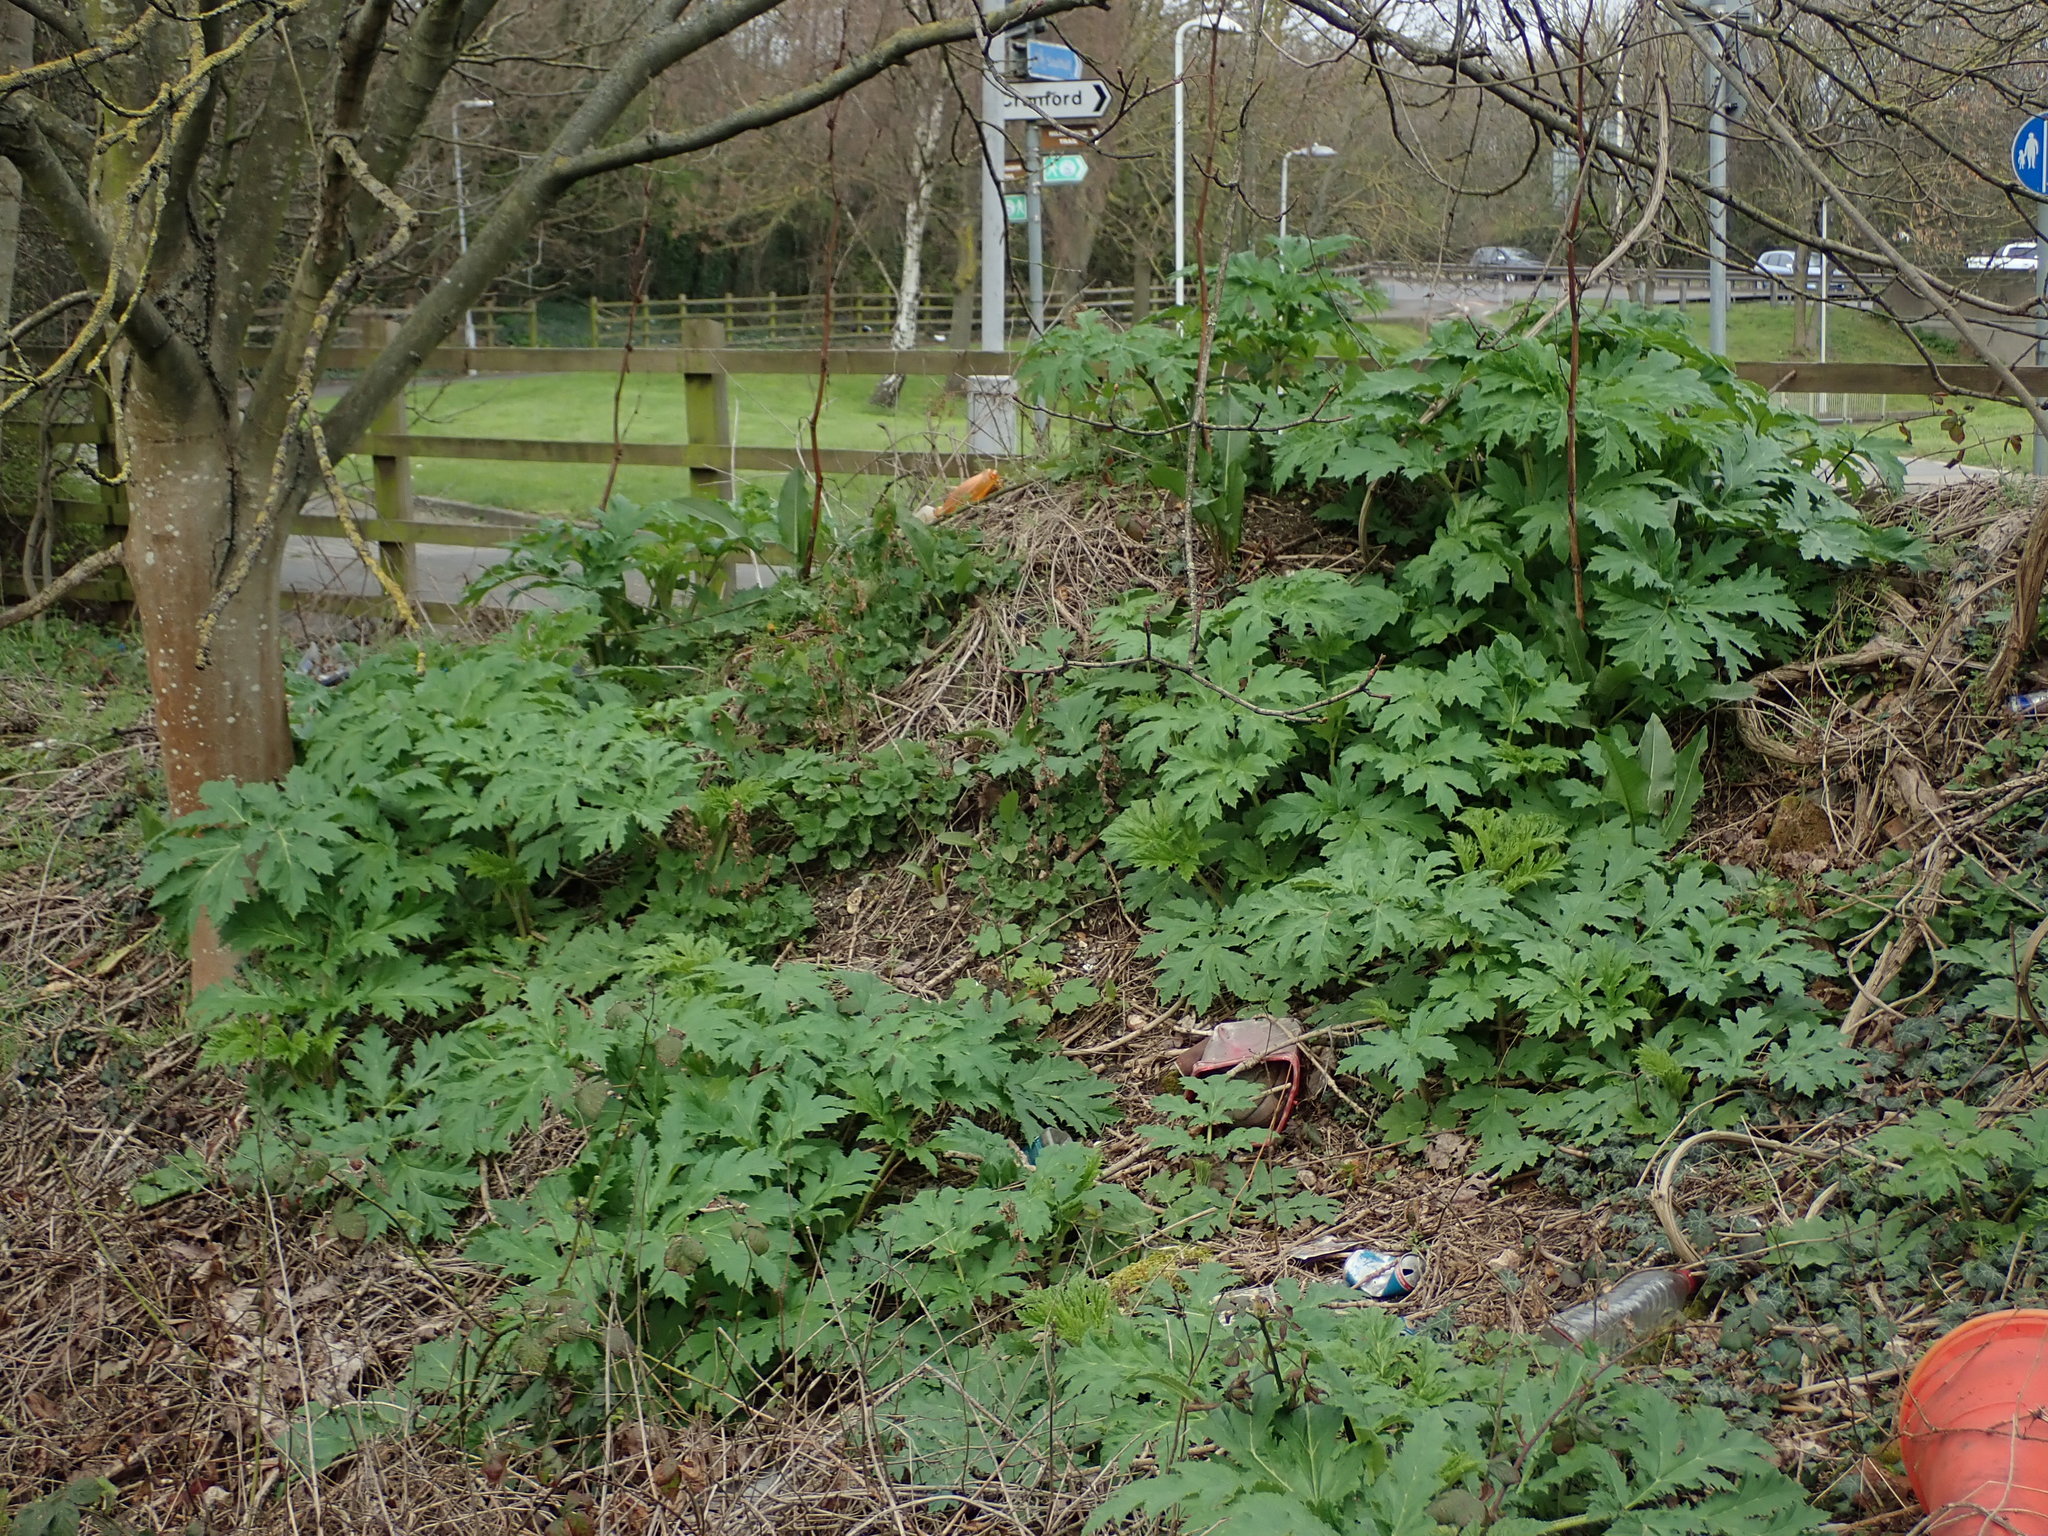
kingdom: Plantae
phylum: Tracheophyta
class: Magnoliopsida
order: Apiales
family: Apiaceae
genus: Heracleum
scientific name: Heracleum mantegazzianum
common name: Giant hogweed
